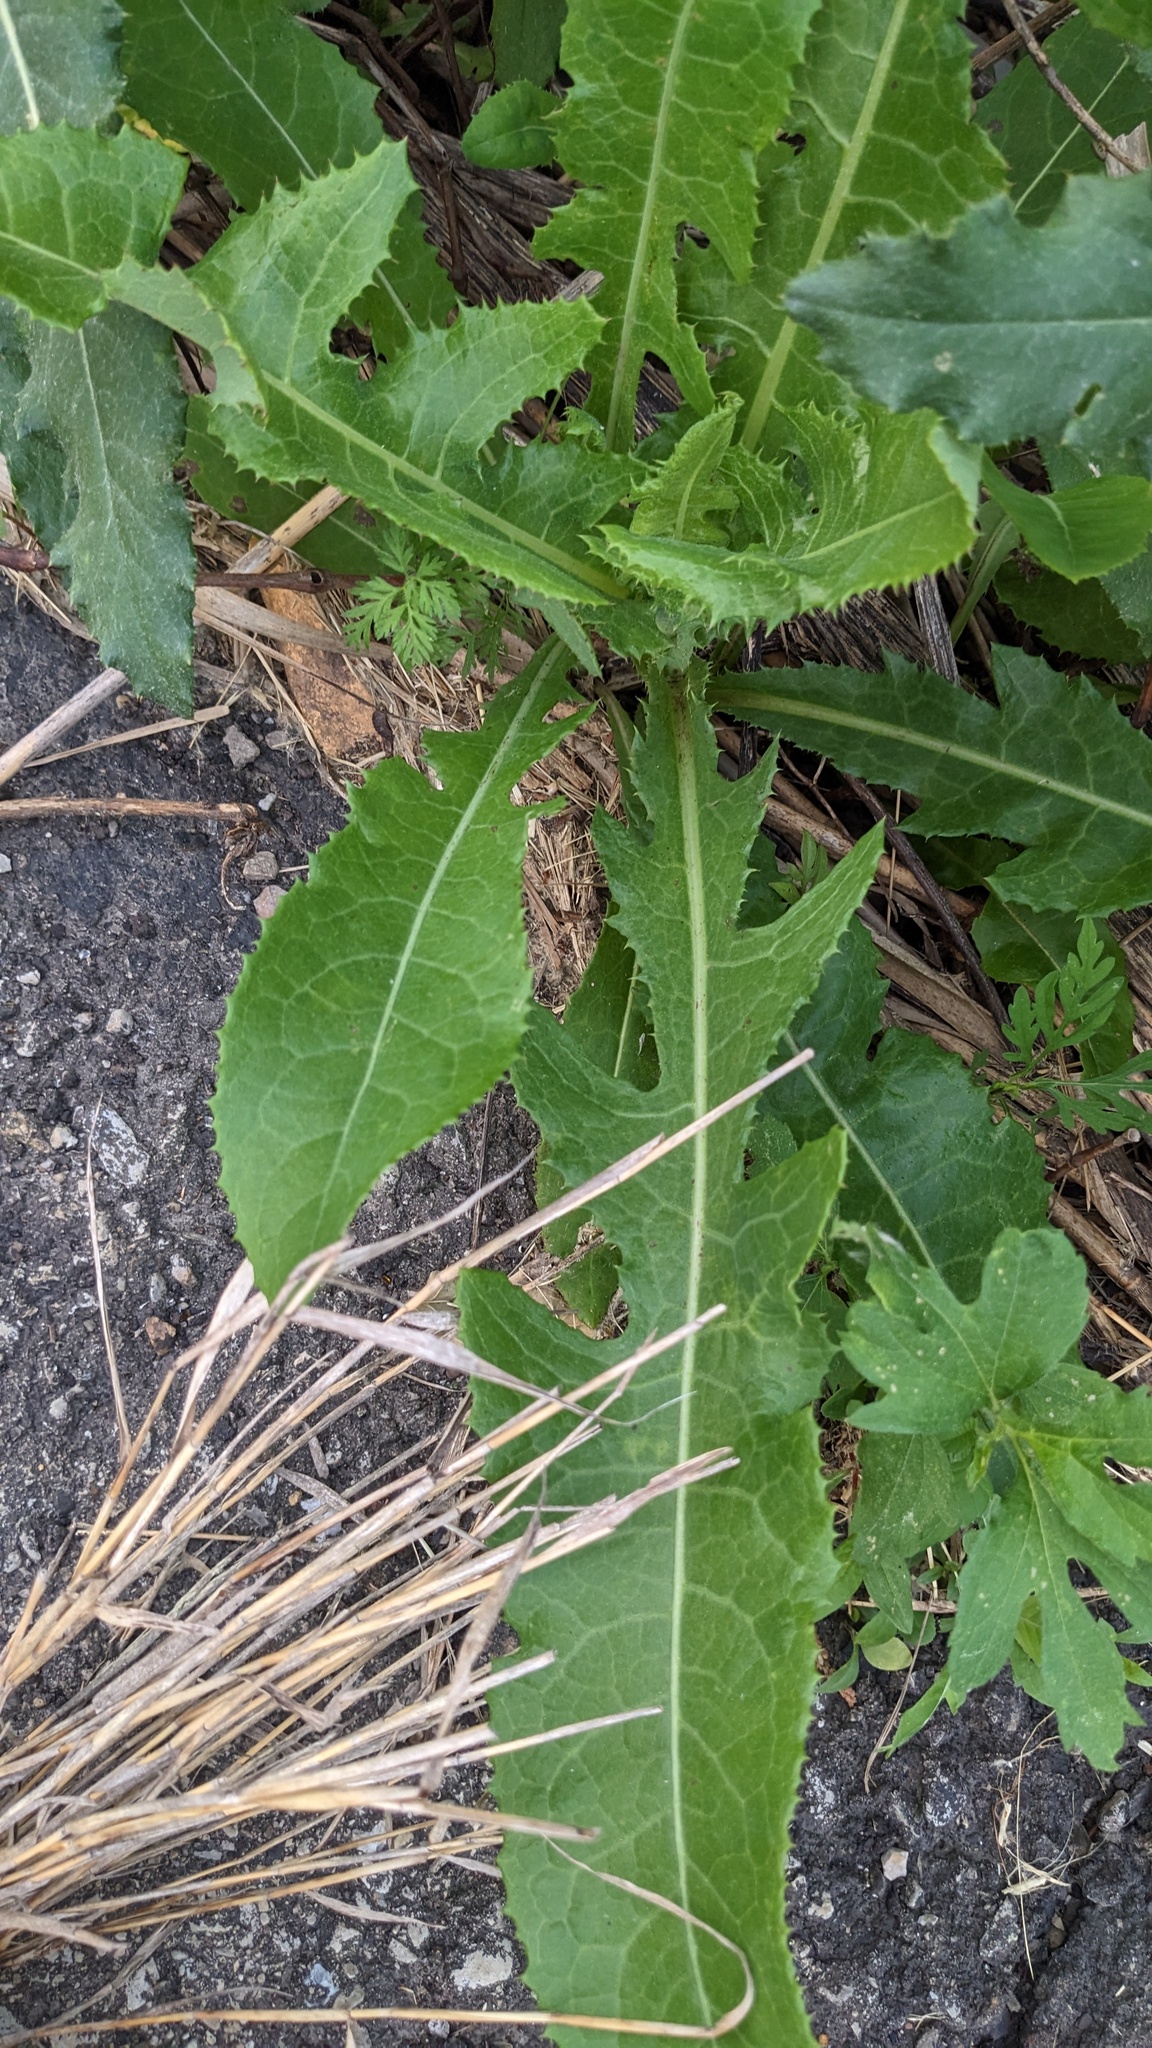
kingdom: Plantae
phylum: Tracheophyta
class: Magnoliopsida
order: Asterales
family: Asteraceae
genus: Sonchus
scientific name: Sonchus arvensis
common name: Perennial sow-thistle
